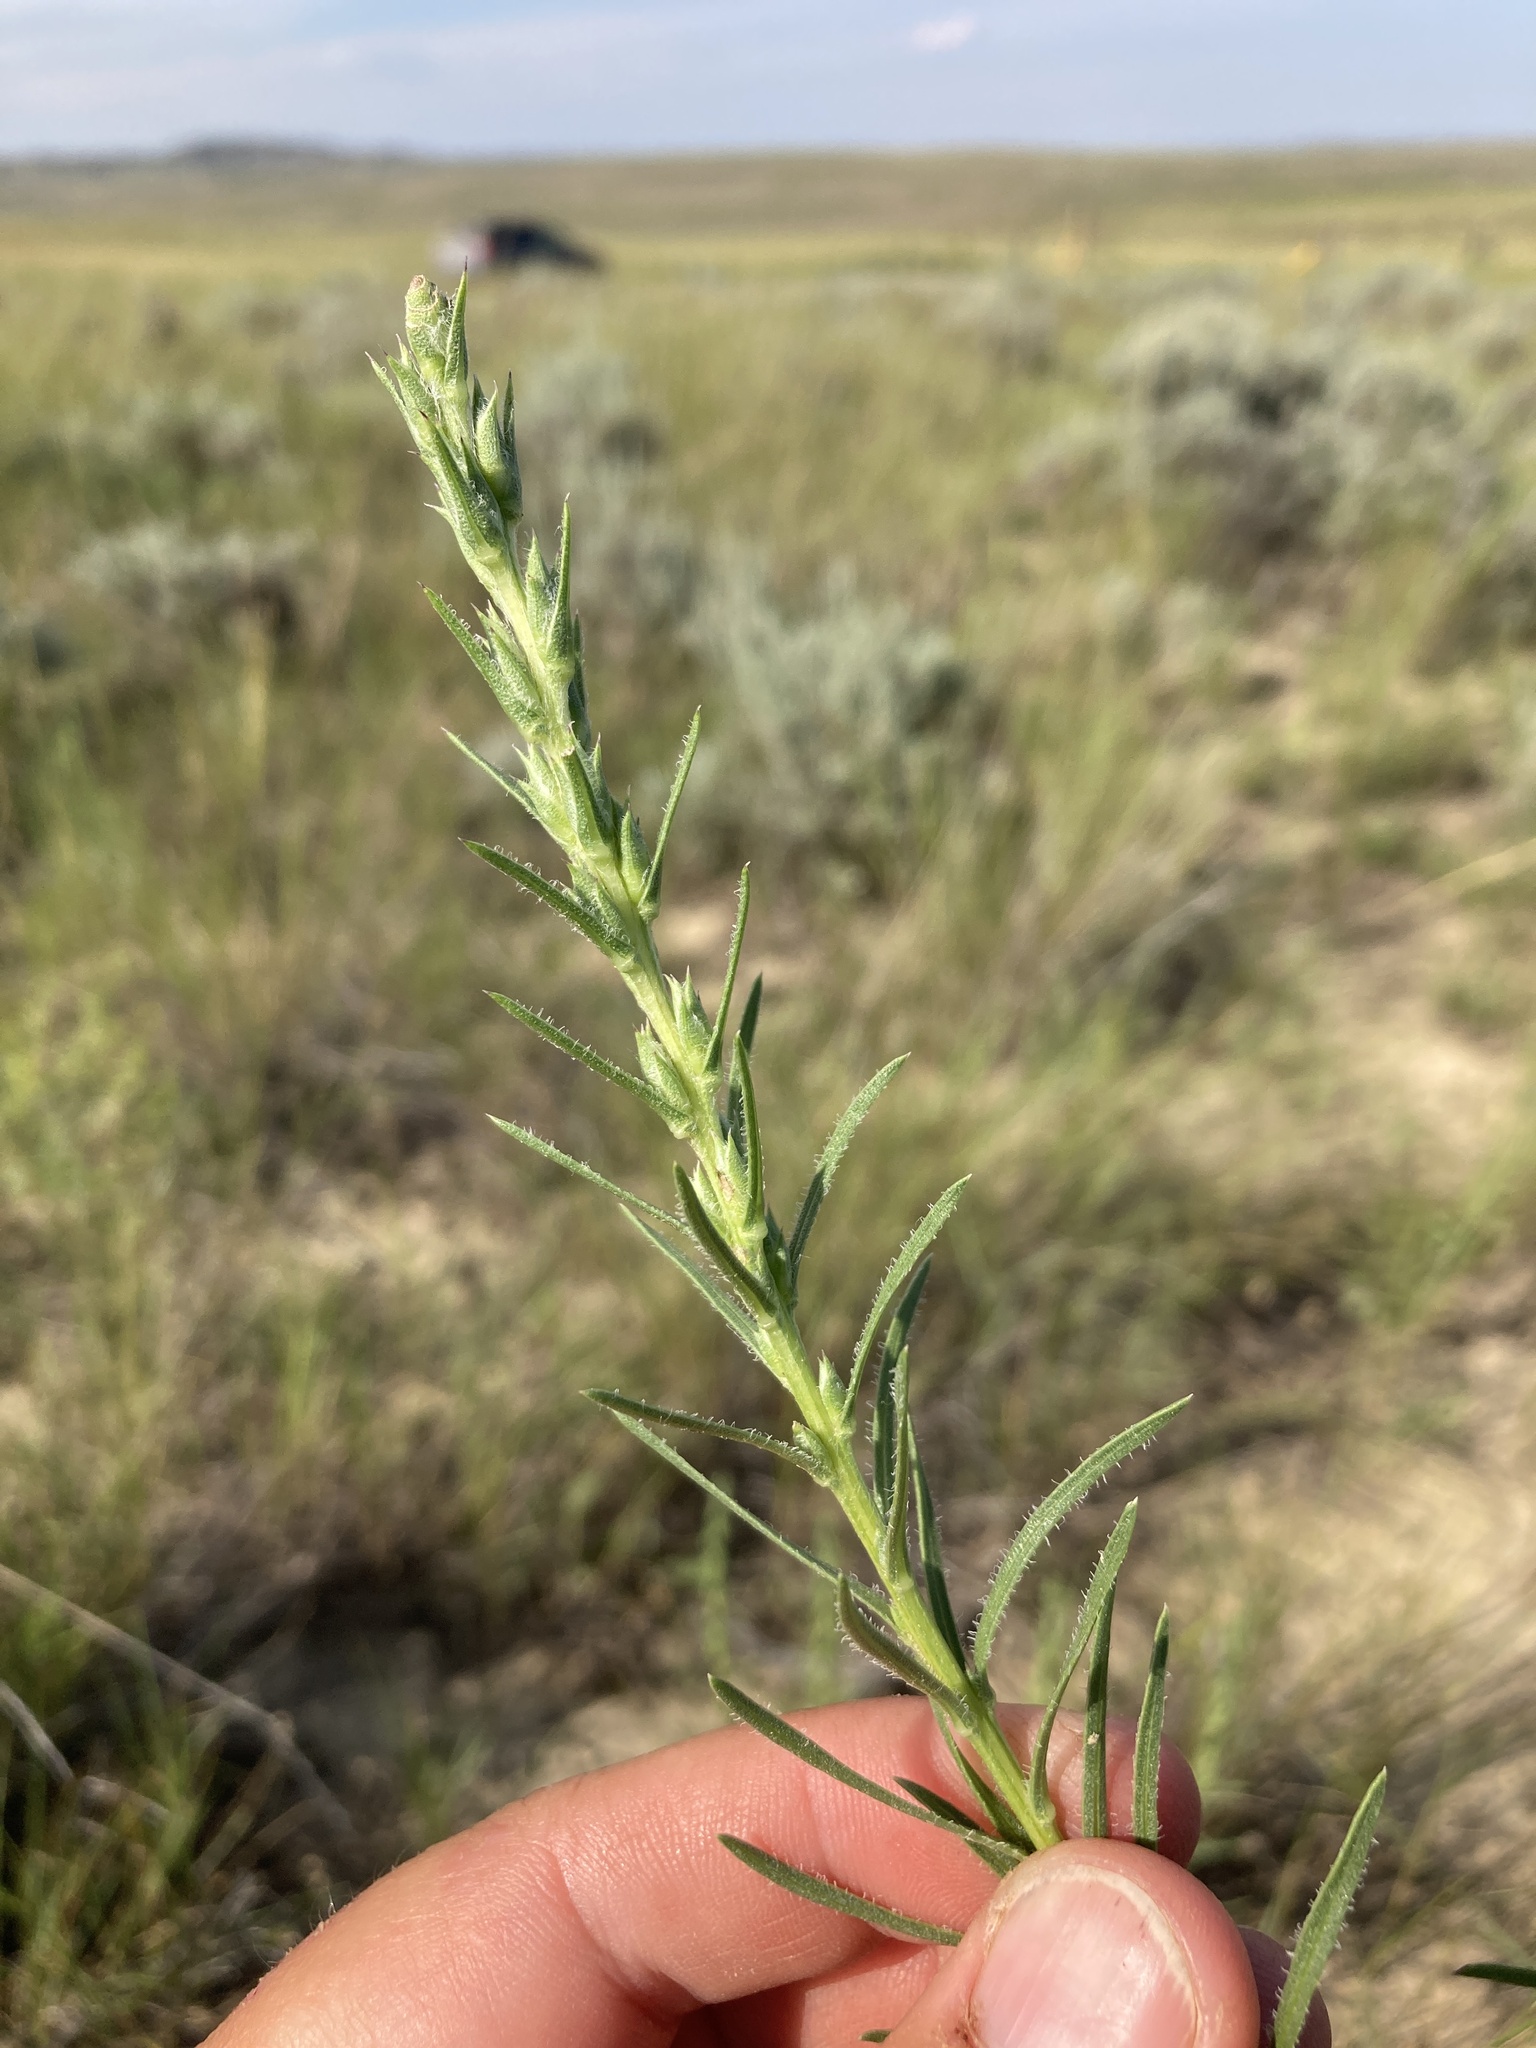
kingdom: Plantae
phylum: Tracheophyta
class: Magnoliopsida
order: Asterales
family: Asteraceae
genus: Liatris
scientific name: Liatris punctata
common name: Dotted gayfeather
